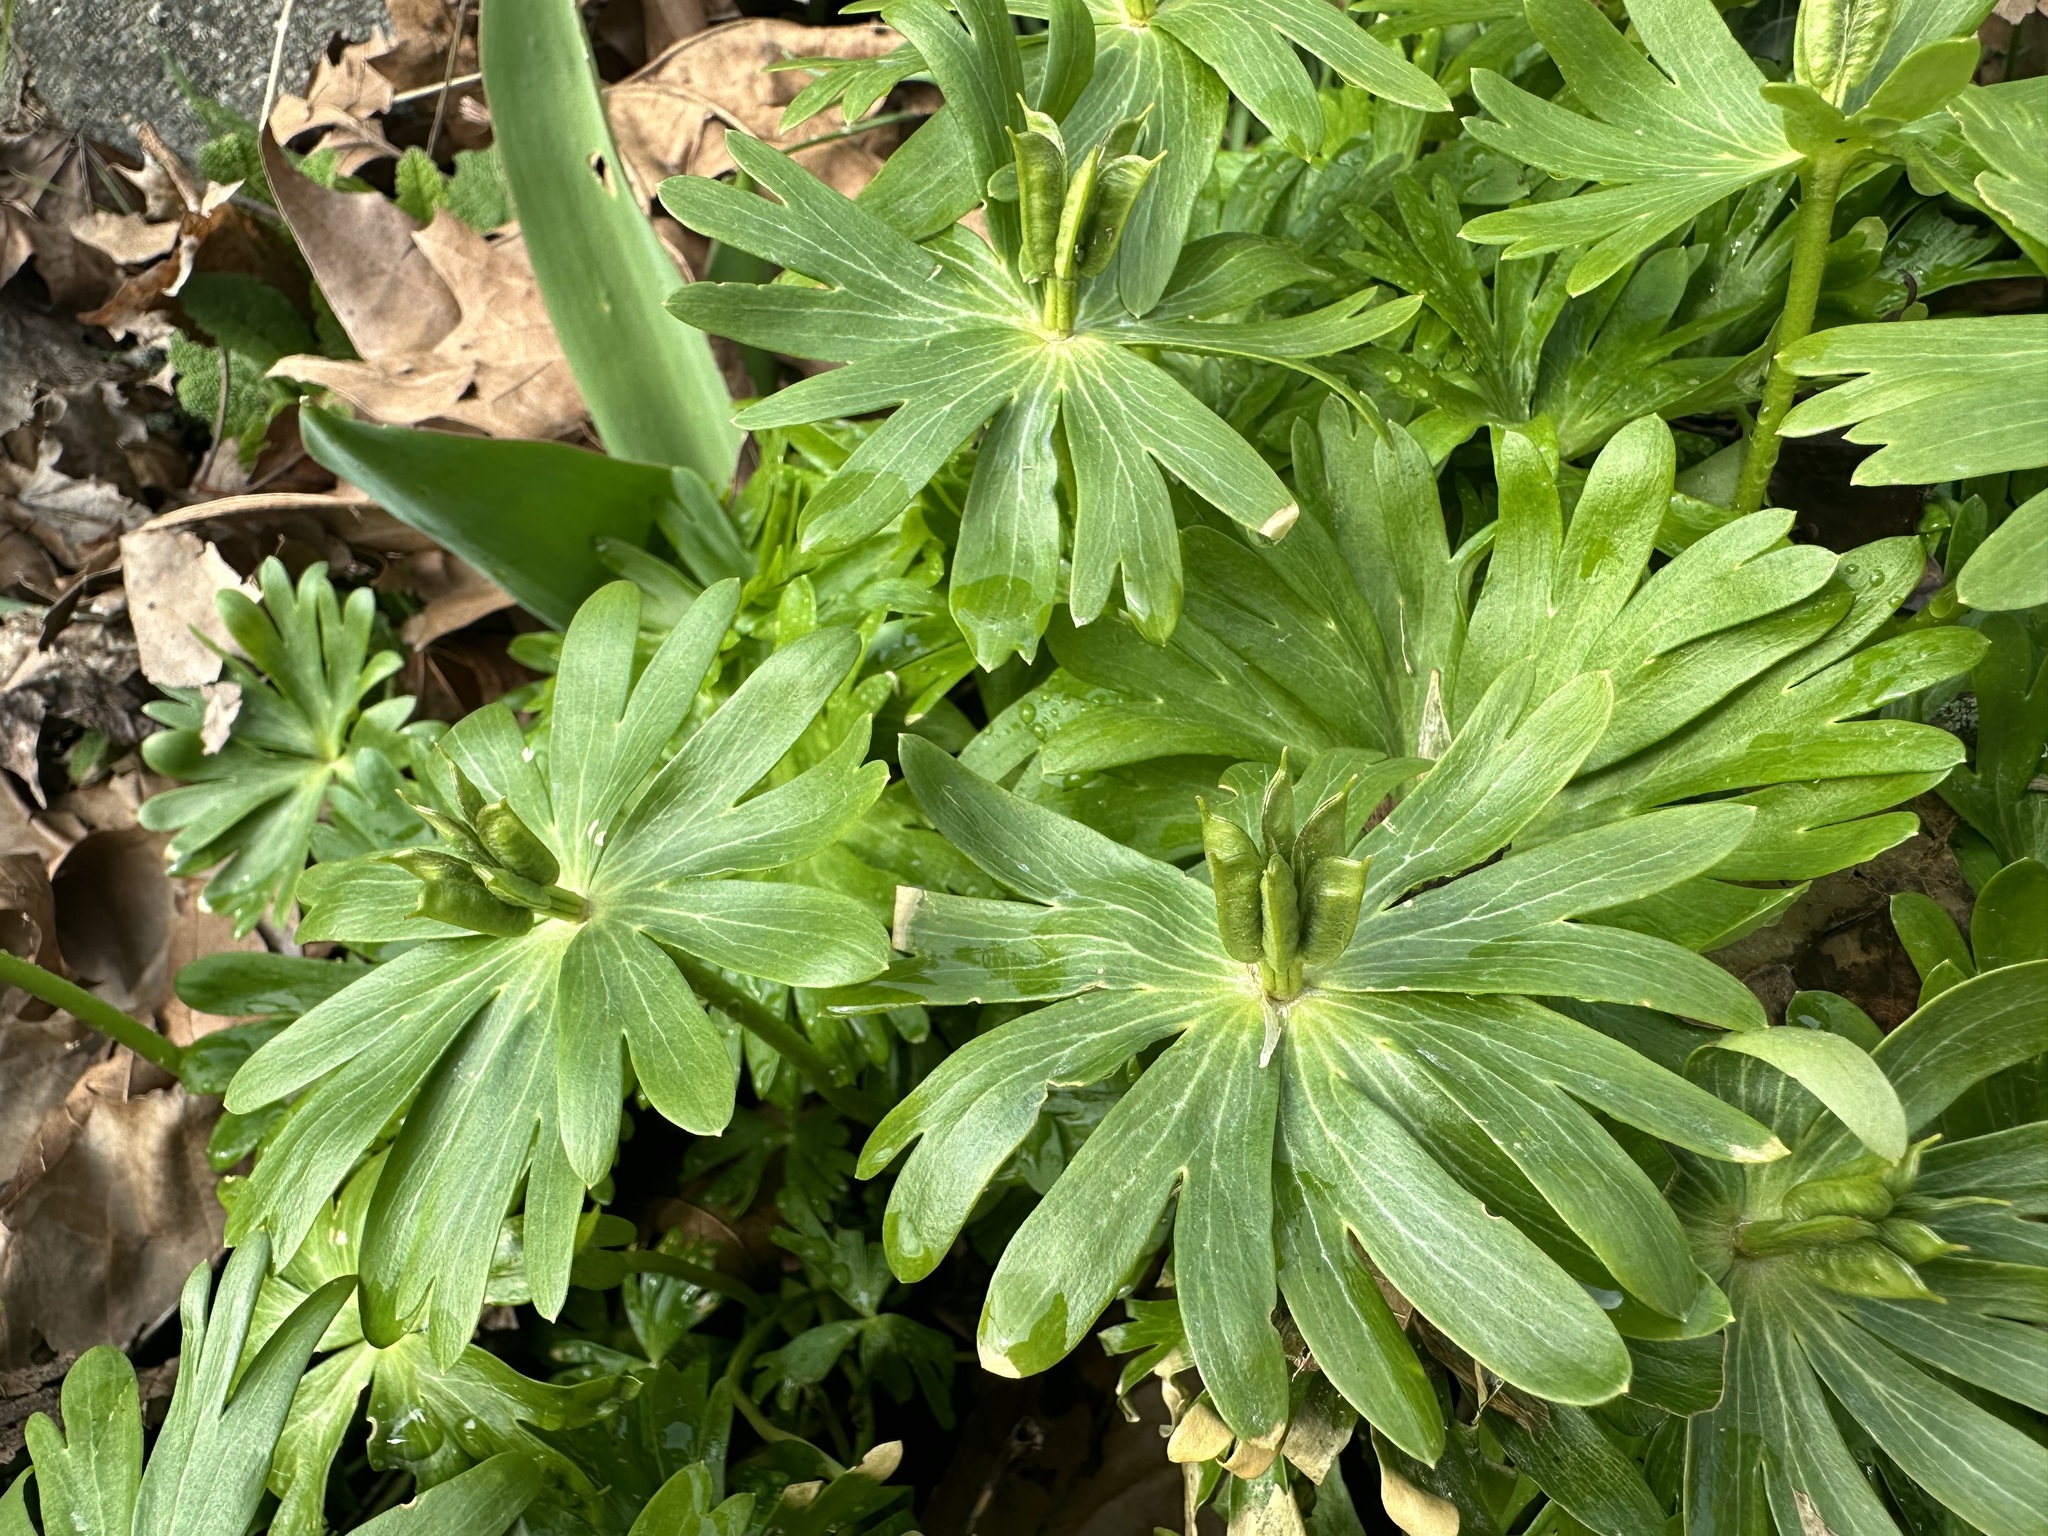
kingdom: Plantae
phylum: Tracheophyta
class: Magnoliopsida
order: Ranunculales
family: Ranunculaceae
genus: Eranthis
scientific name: Eranthis hyemalis
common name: Winter aconite
